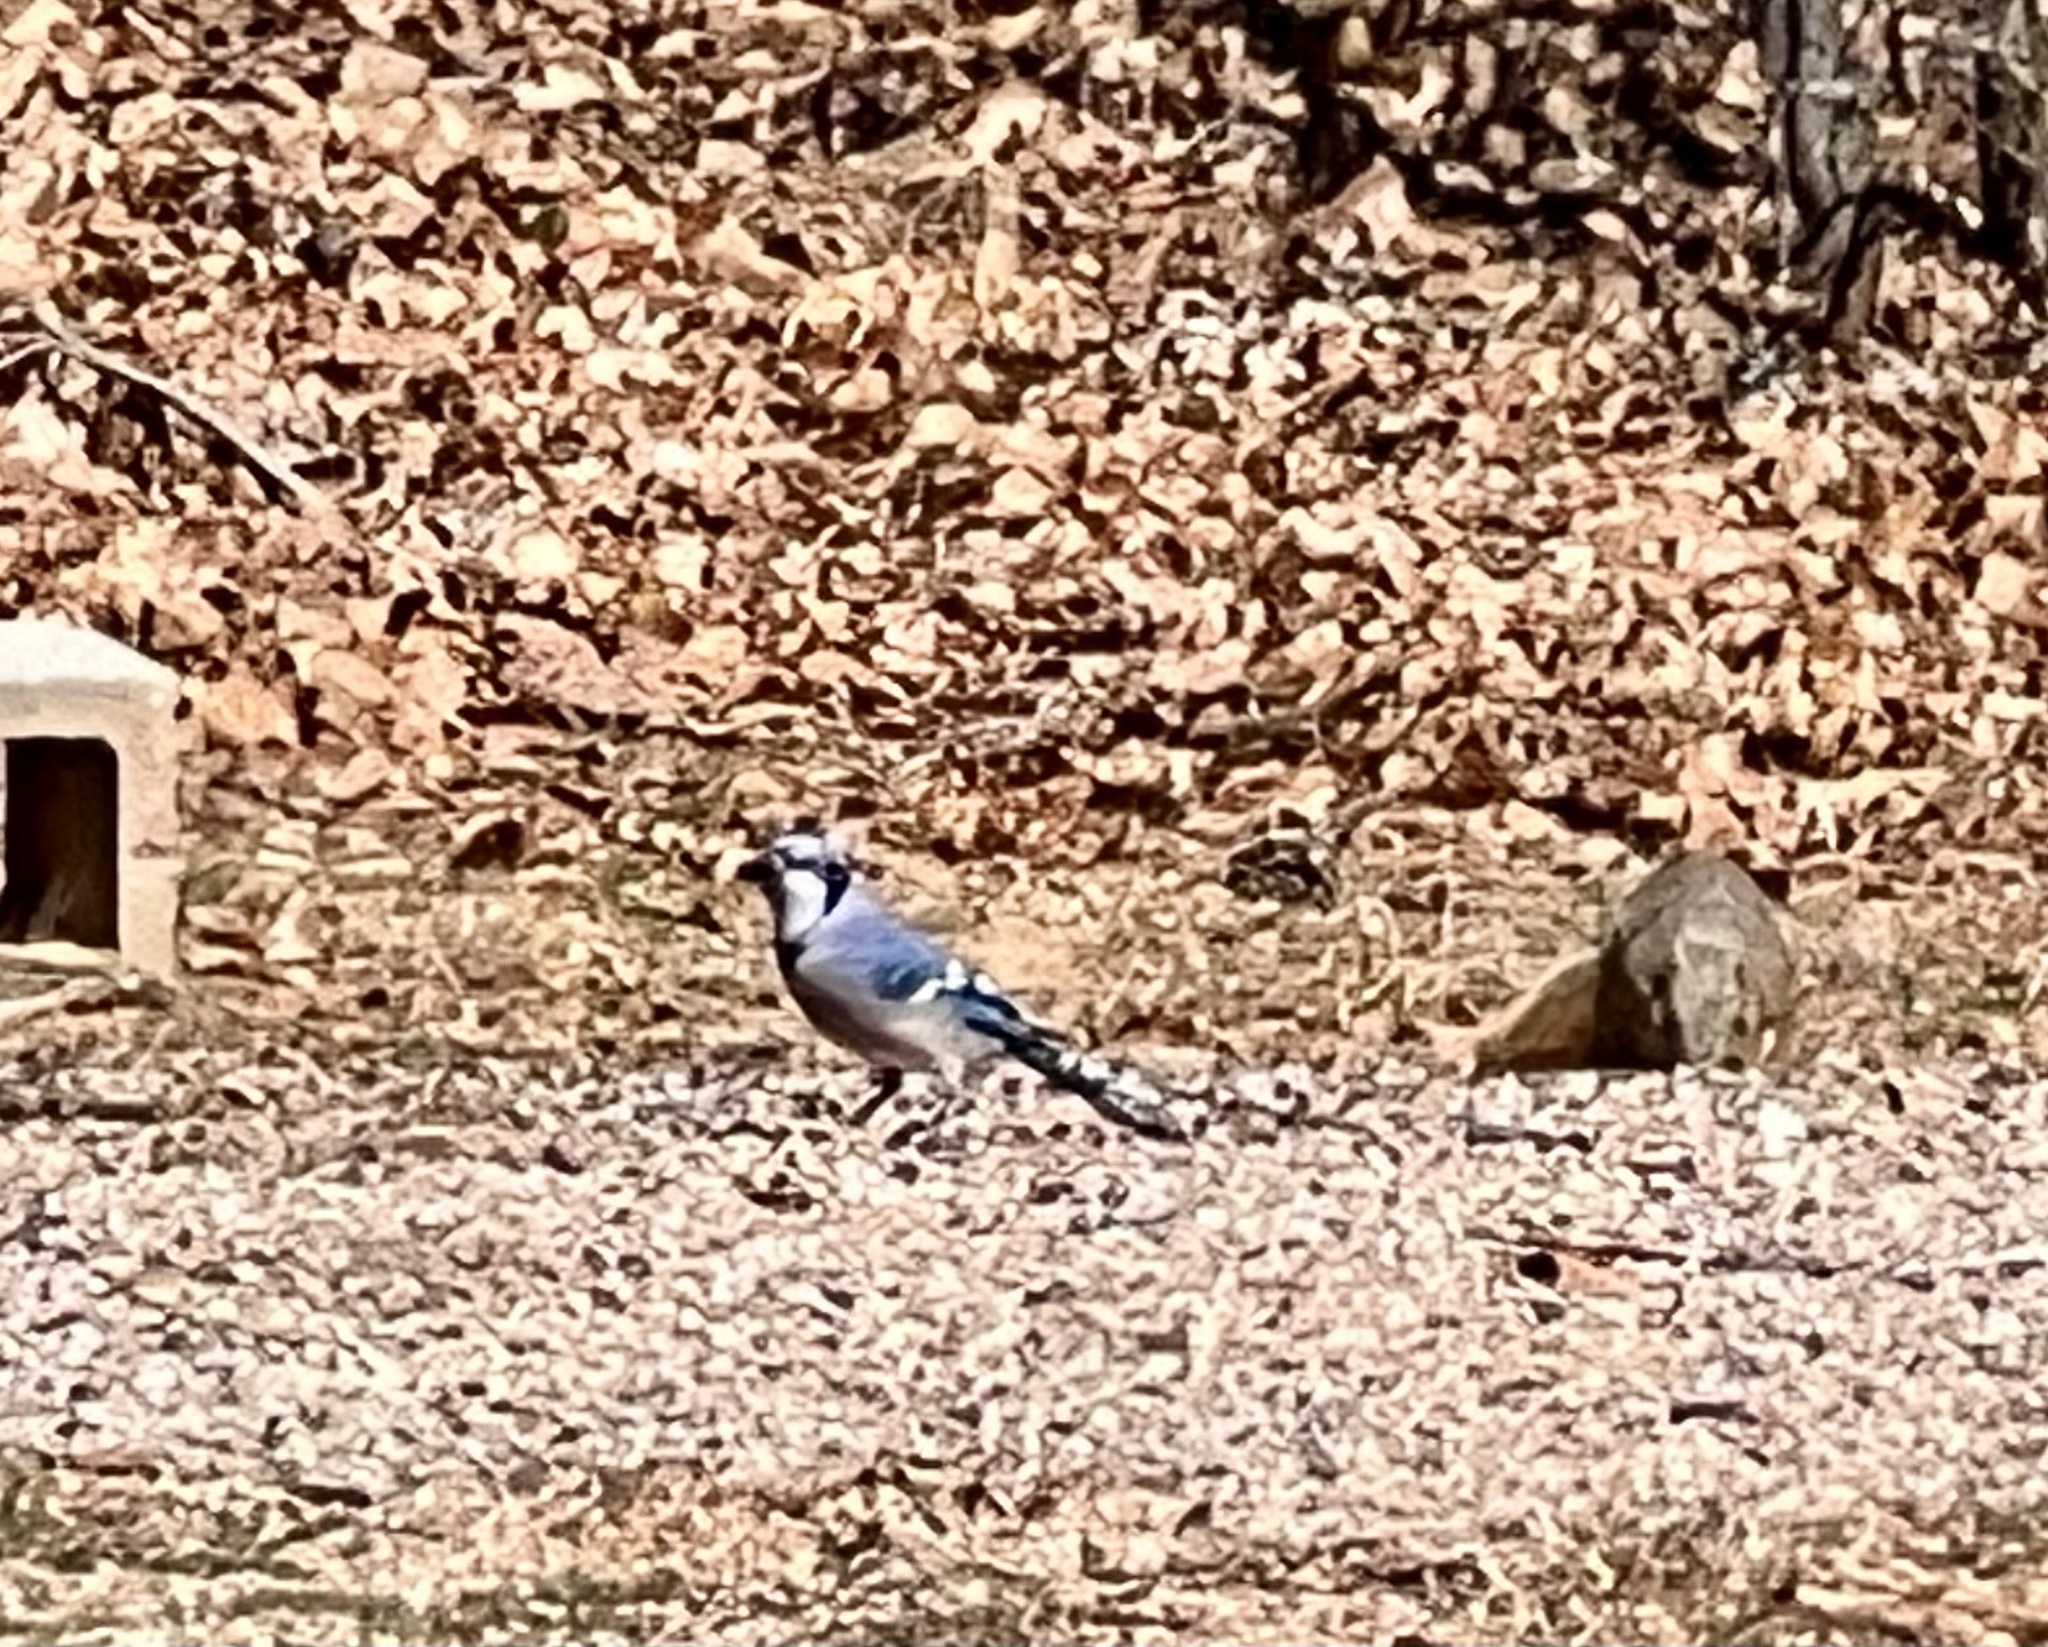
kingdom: Animalia
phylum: Chordata
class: Aves
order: Passeriformes
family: Corvidae
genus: Cyanocitta
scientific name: Cyanocitta cristata
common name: Blue jay
